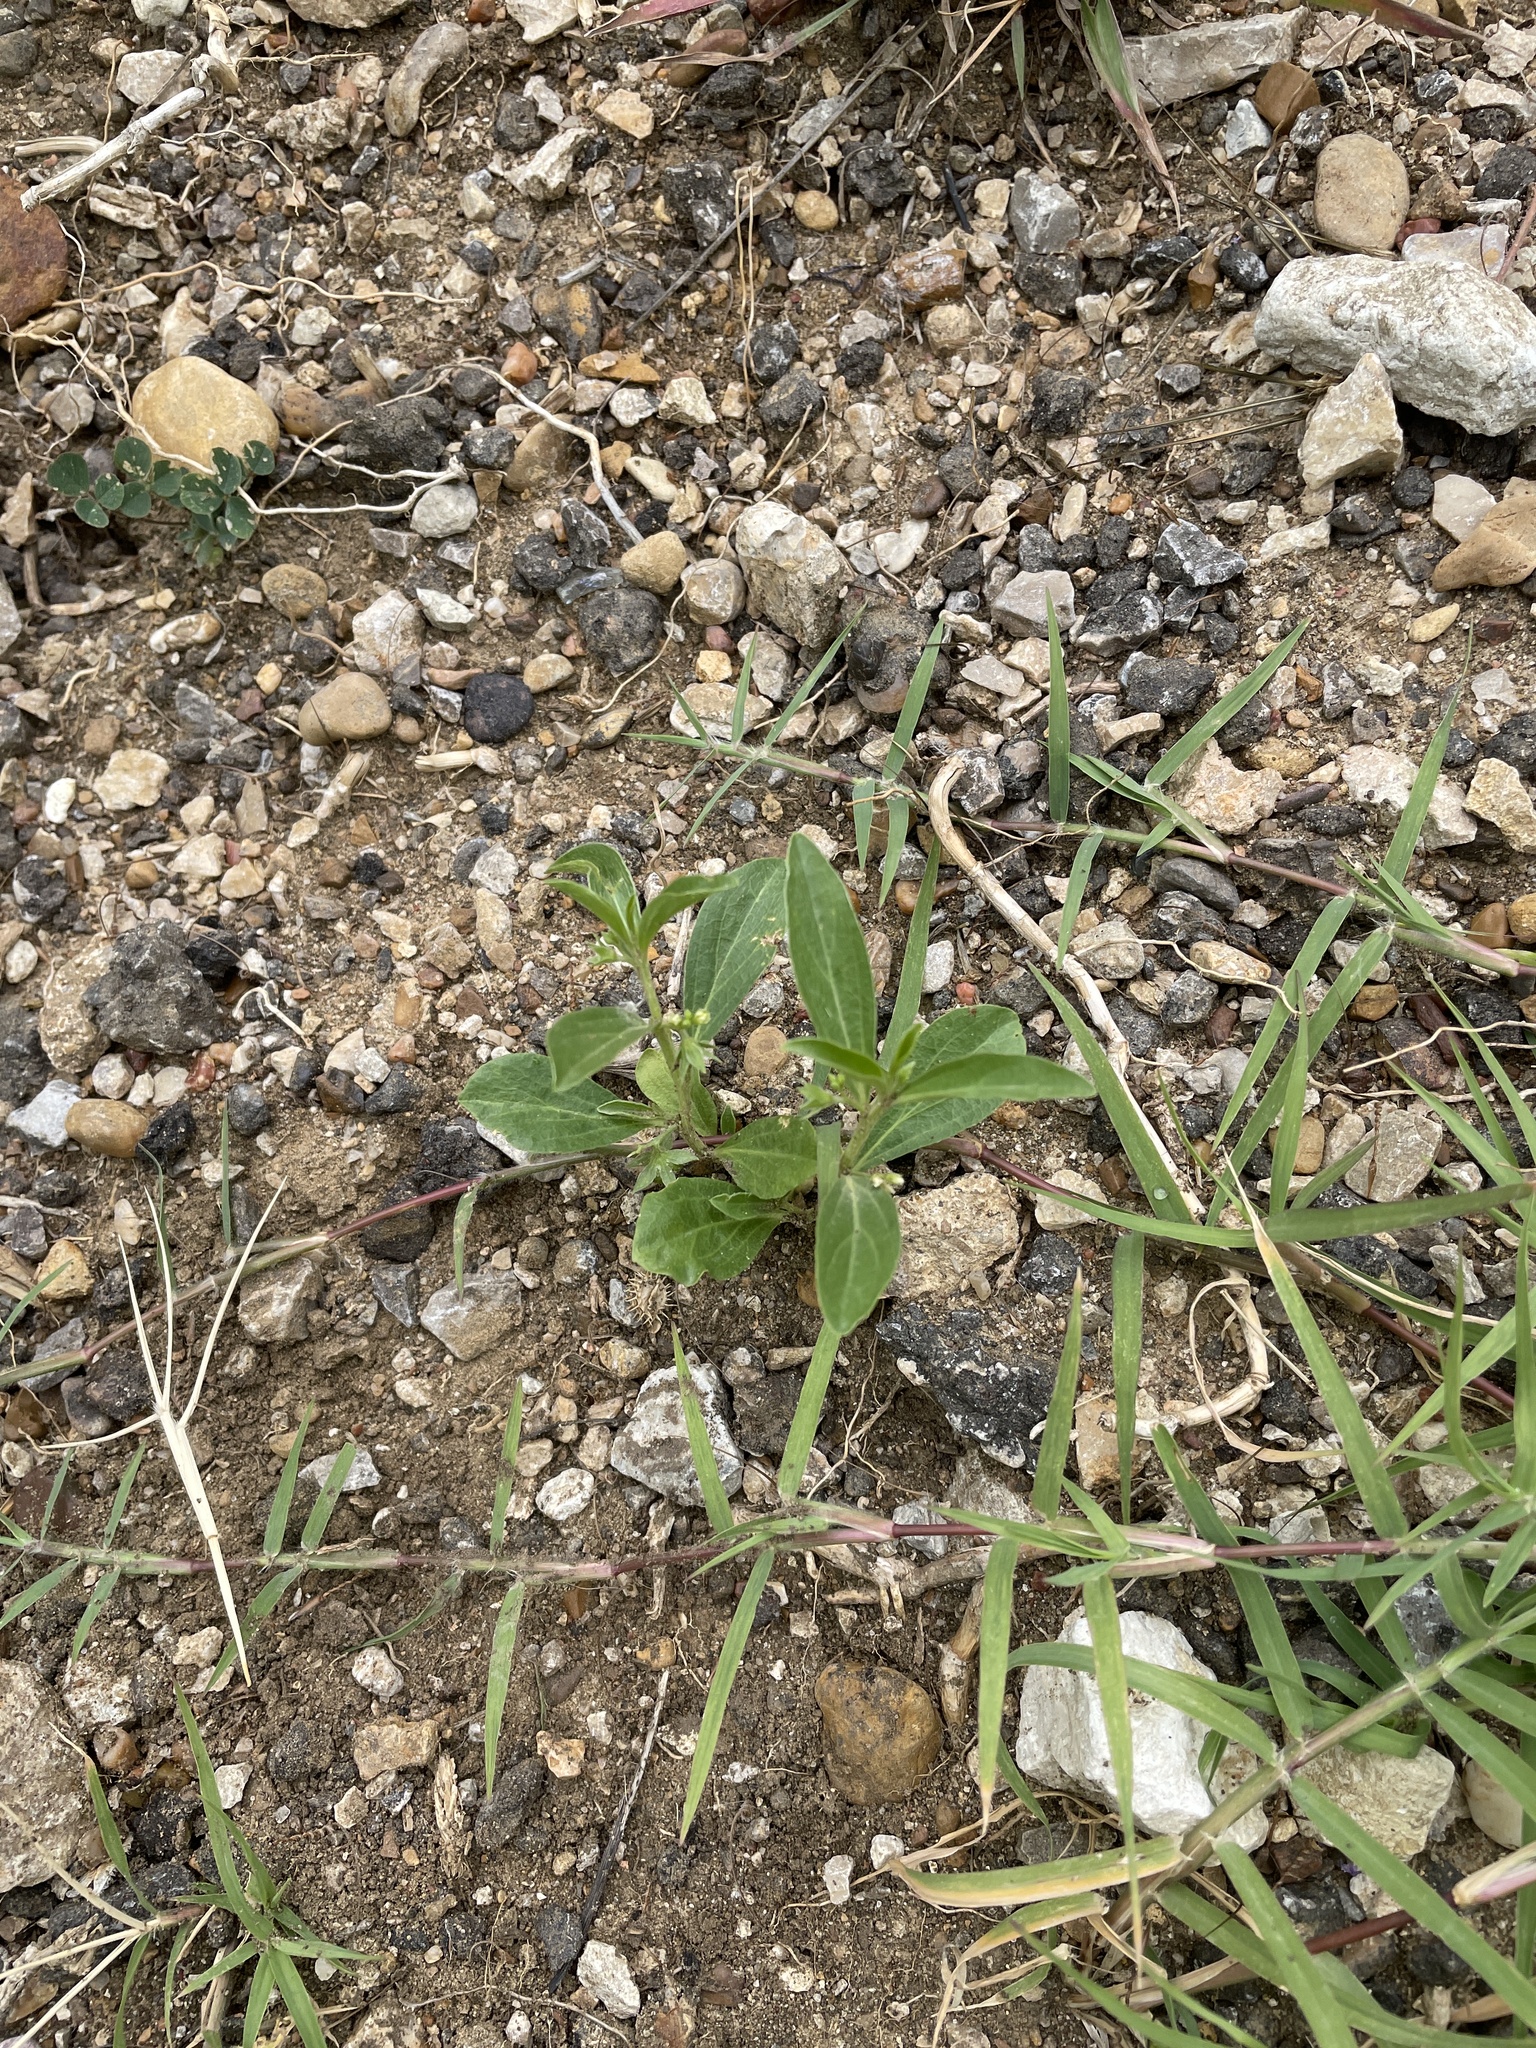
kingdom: Plantae
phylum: Tracheophyta
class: Magnoliopsida
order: Malpighiales
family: Euphorbiaceae
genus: Ditaxis
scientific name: Ditaxis humilis
